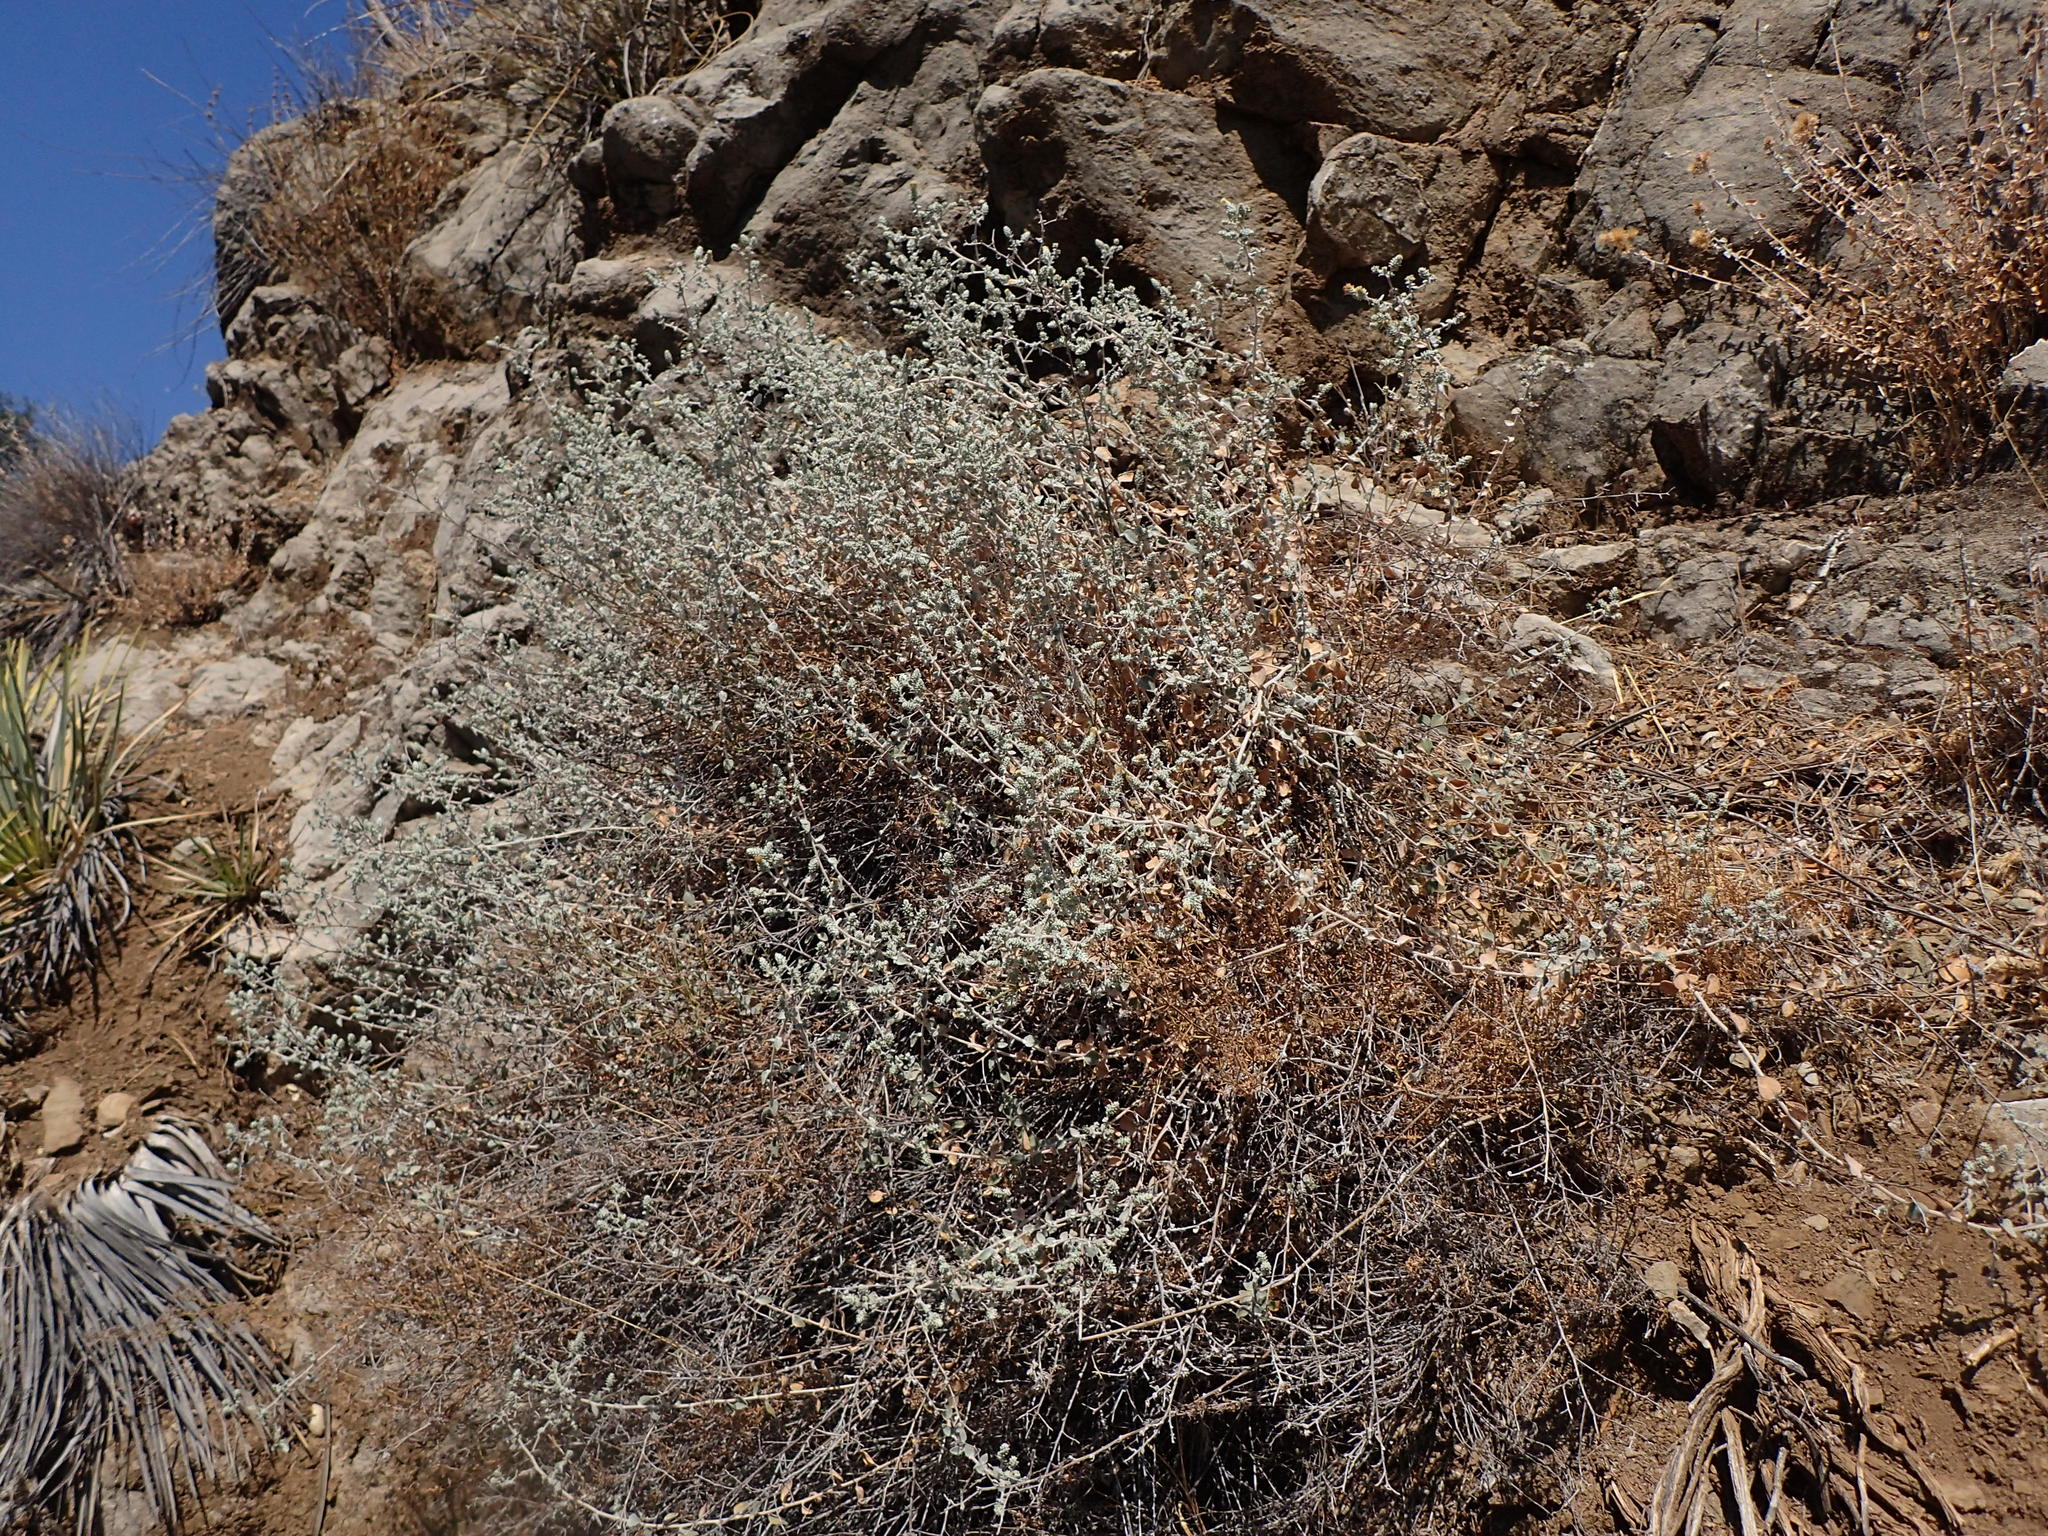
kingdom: Plantae
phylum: Tracheophyta
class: Magnoliopsida
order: Asterales
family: Asteraceae
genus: Brickellia
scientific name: Brickellia nevinii
